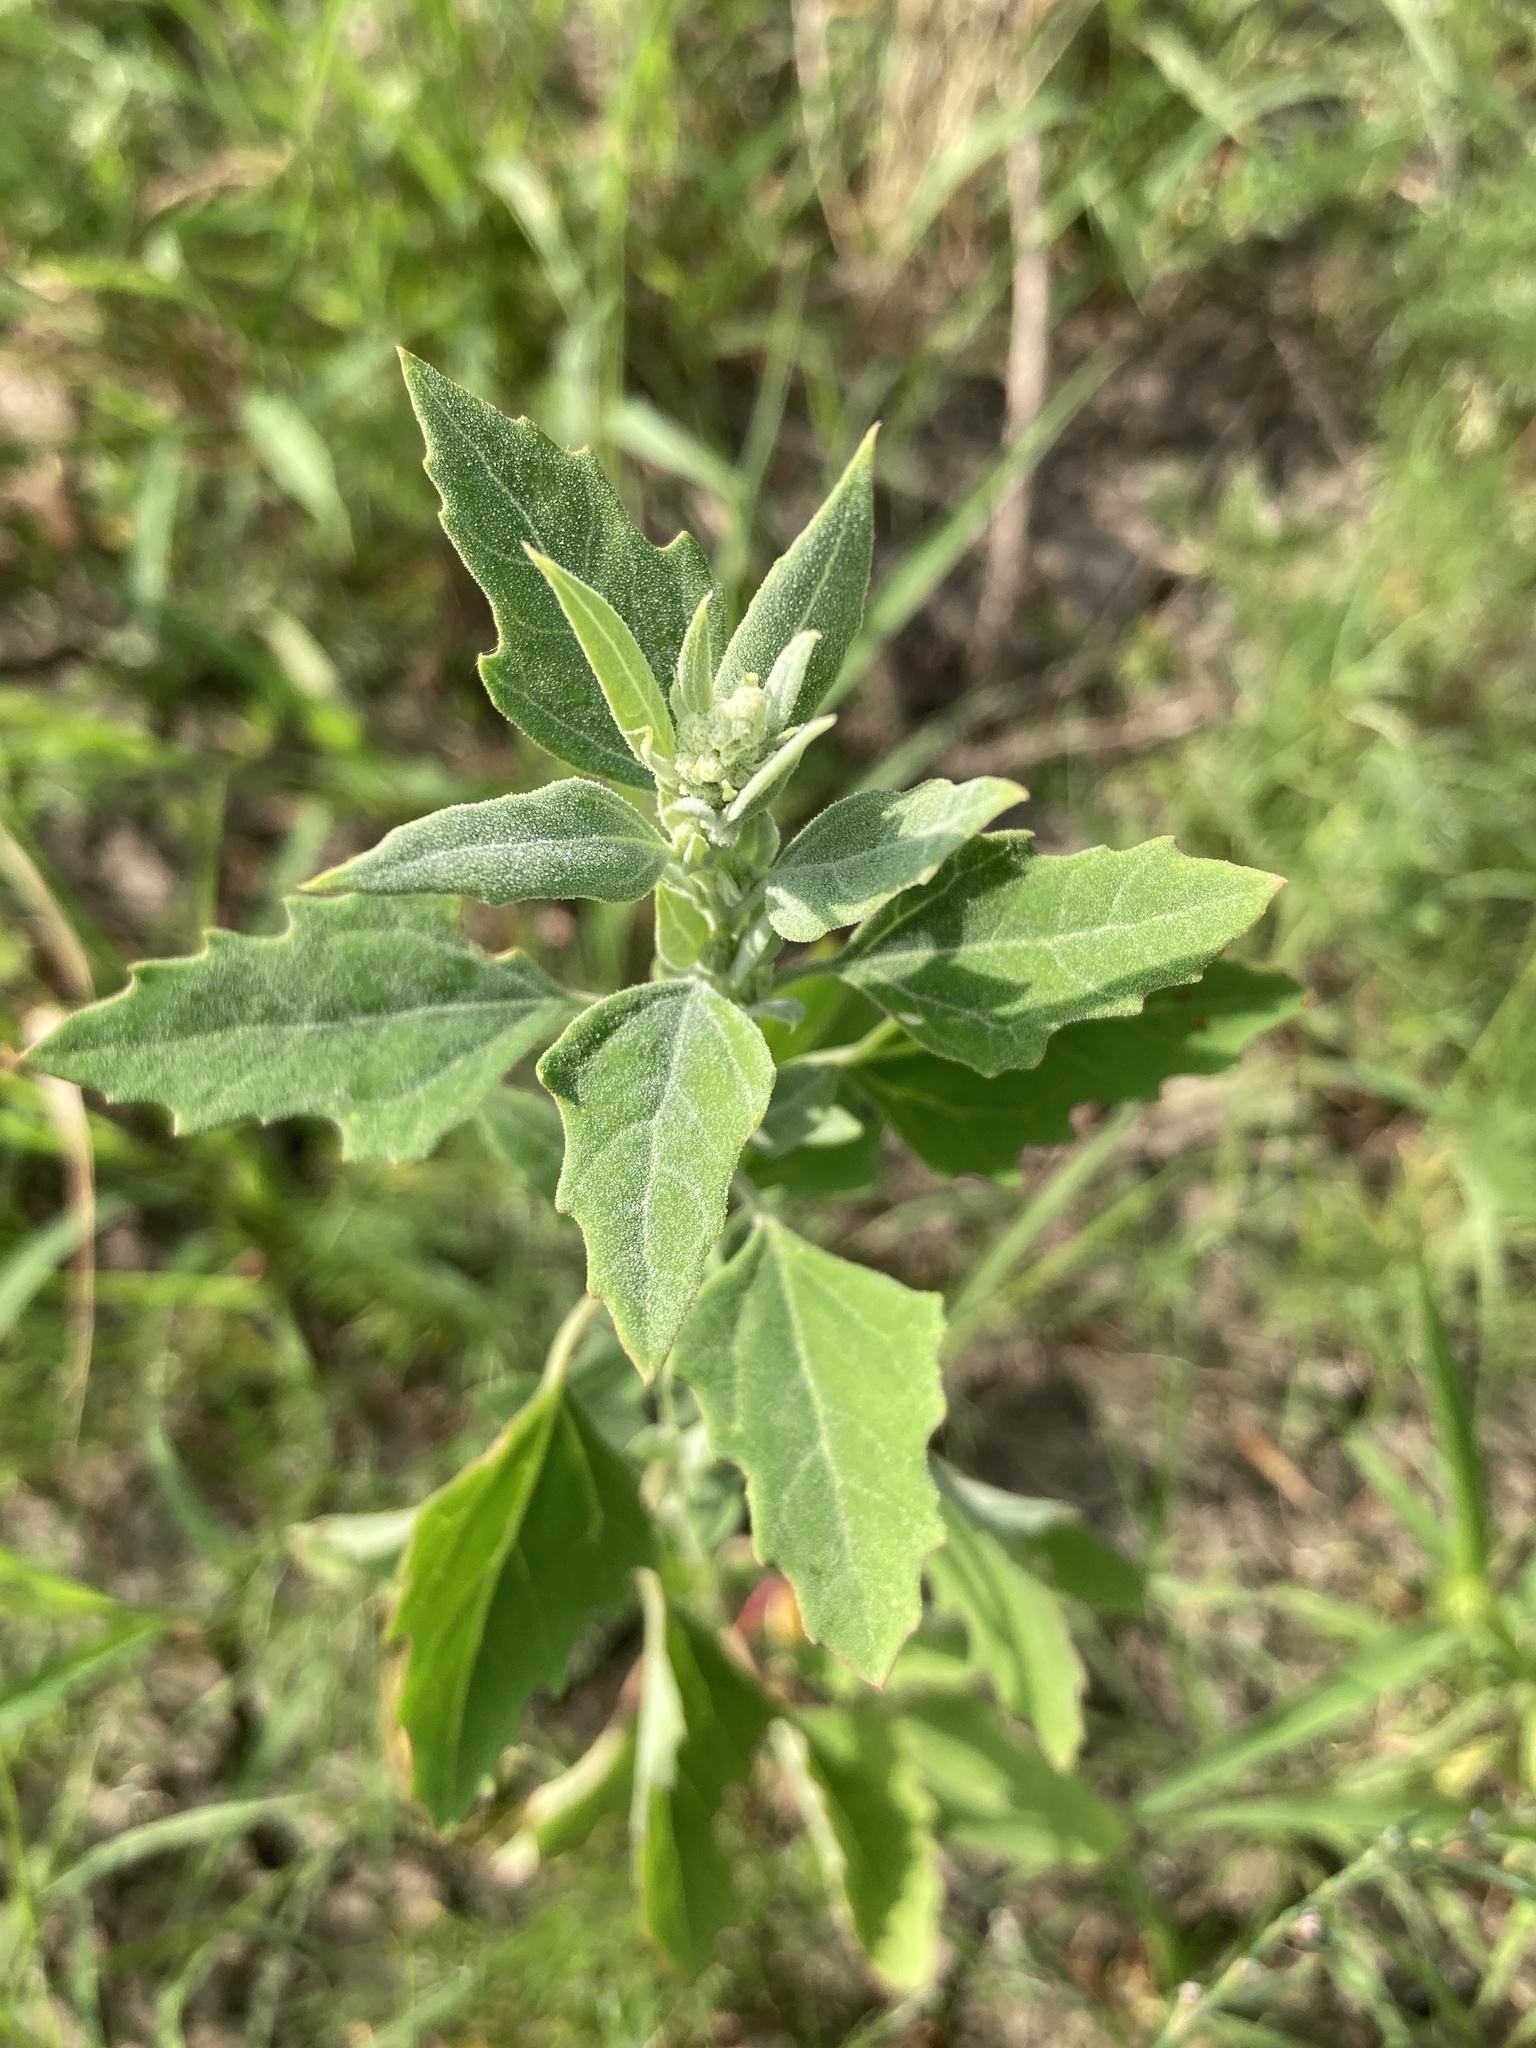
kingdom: Plantae
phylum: Tracheophyta
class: Magnoliopsida
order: Caryophyllales
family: Amaranthaceae
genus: Chenopodium
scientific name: Chenopodium album
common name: Fat-hen
